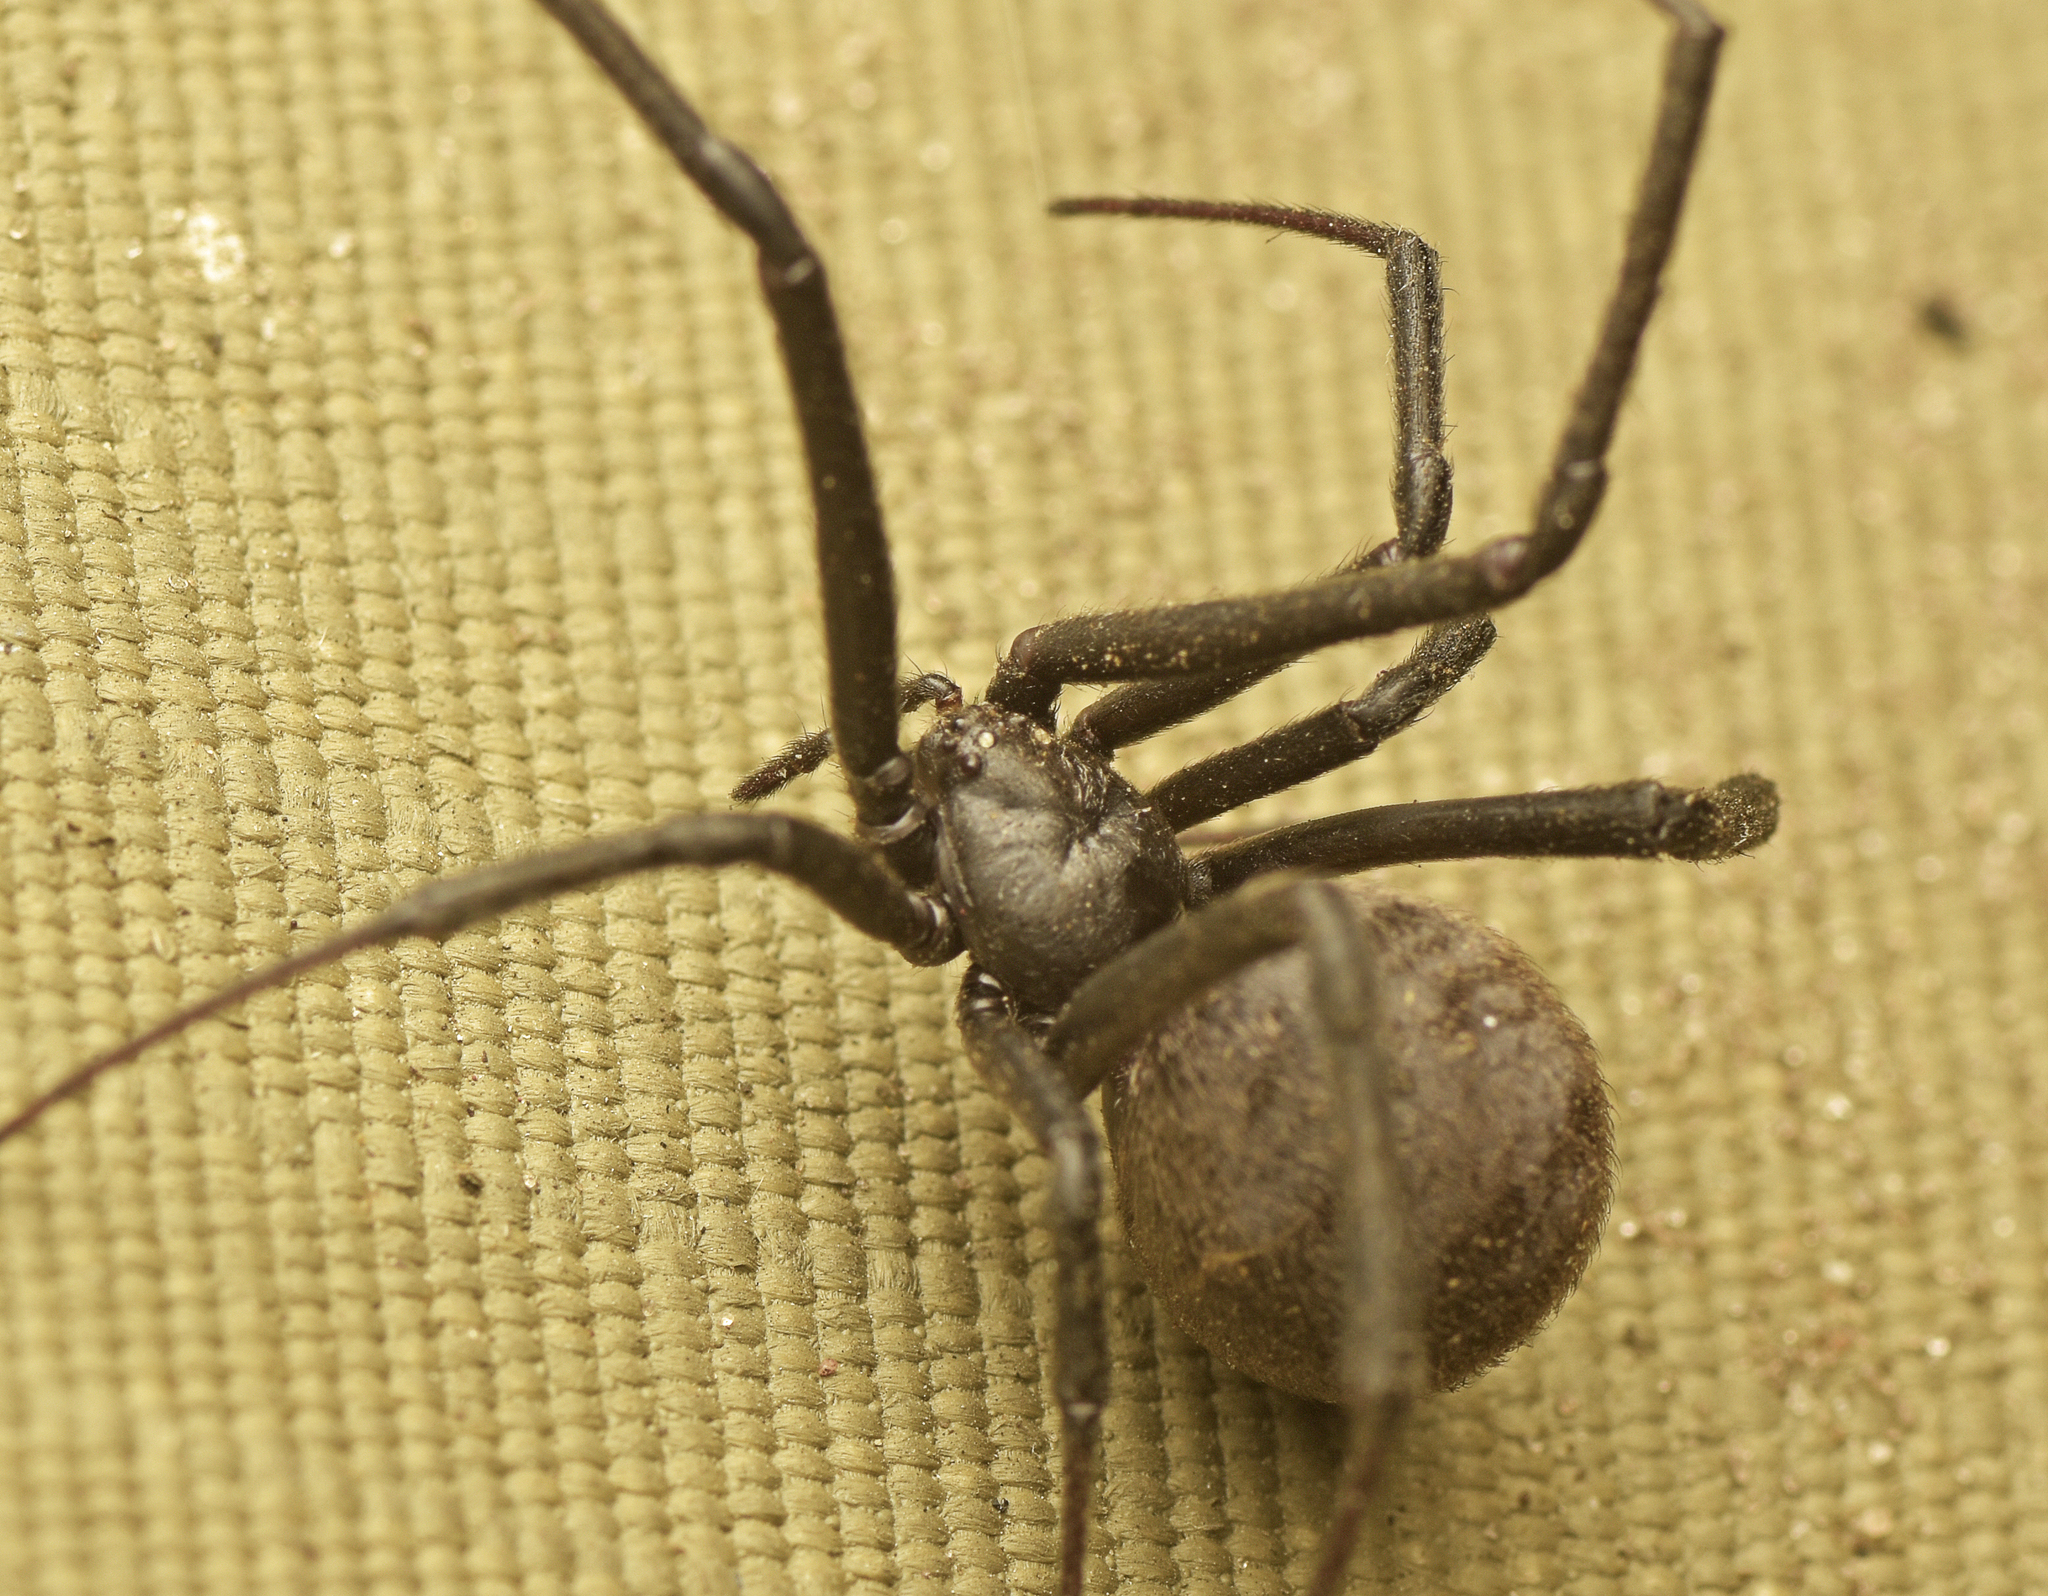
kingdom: Animalia
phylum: Arthropoda
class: Arachnida
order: Araneae
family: Theridiidae
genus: Latrodectus
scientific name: Latrodectus geometricus
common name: Brown widow spider
